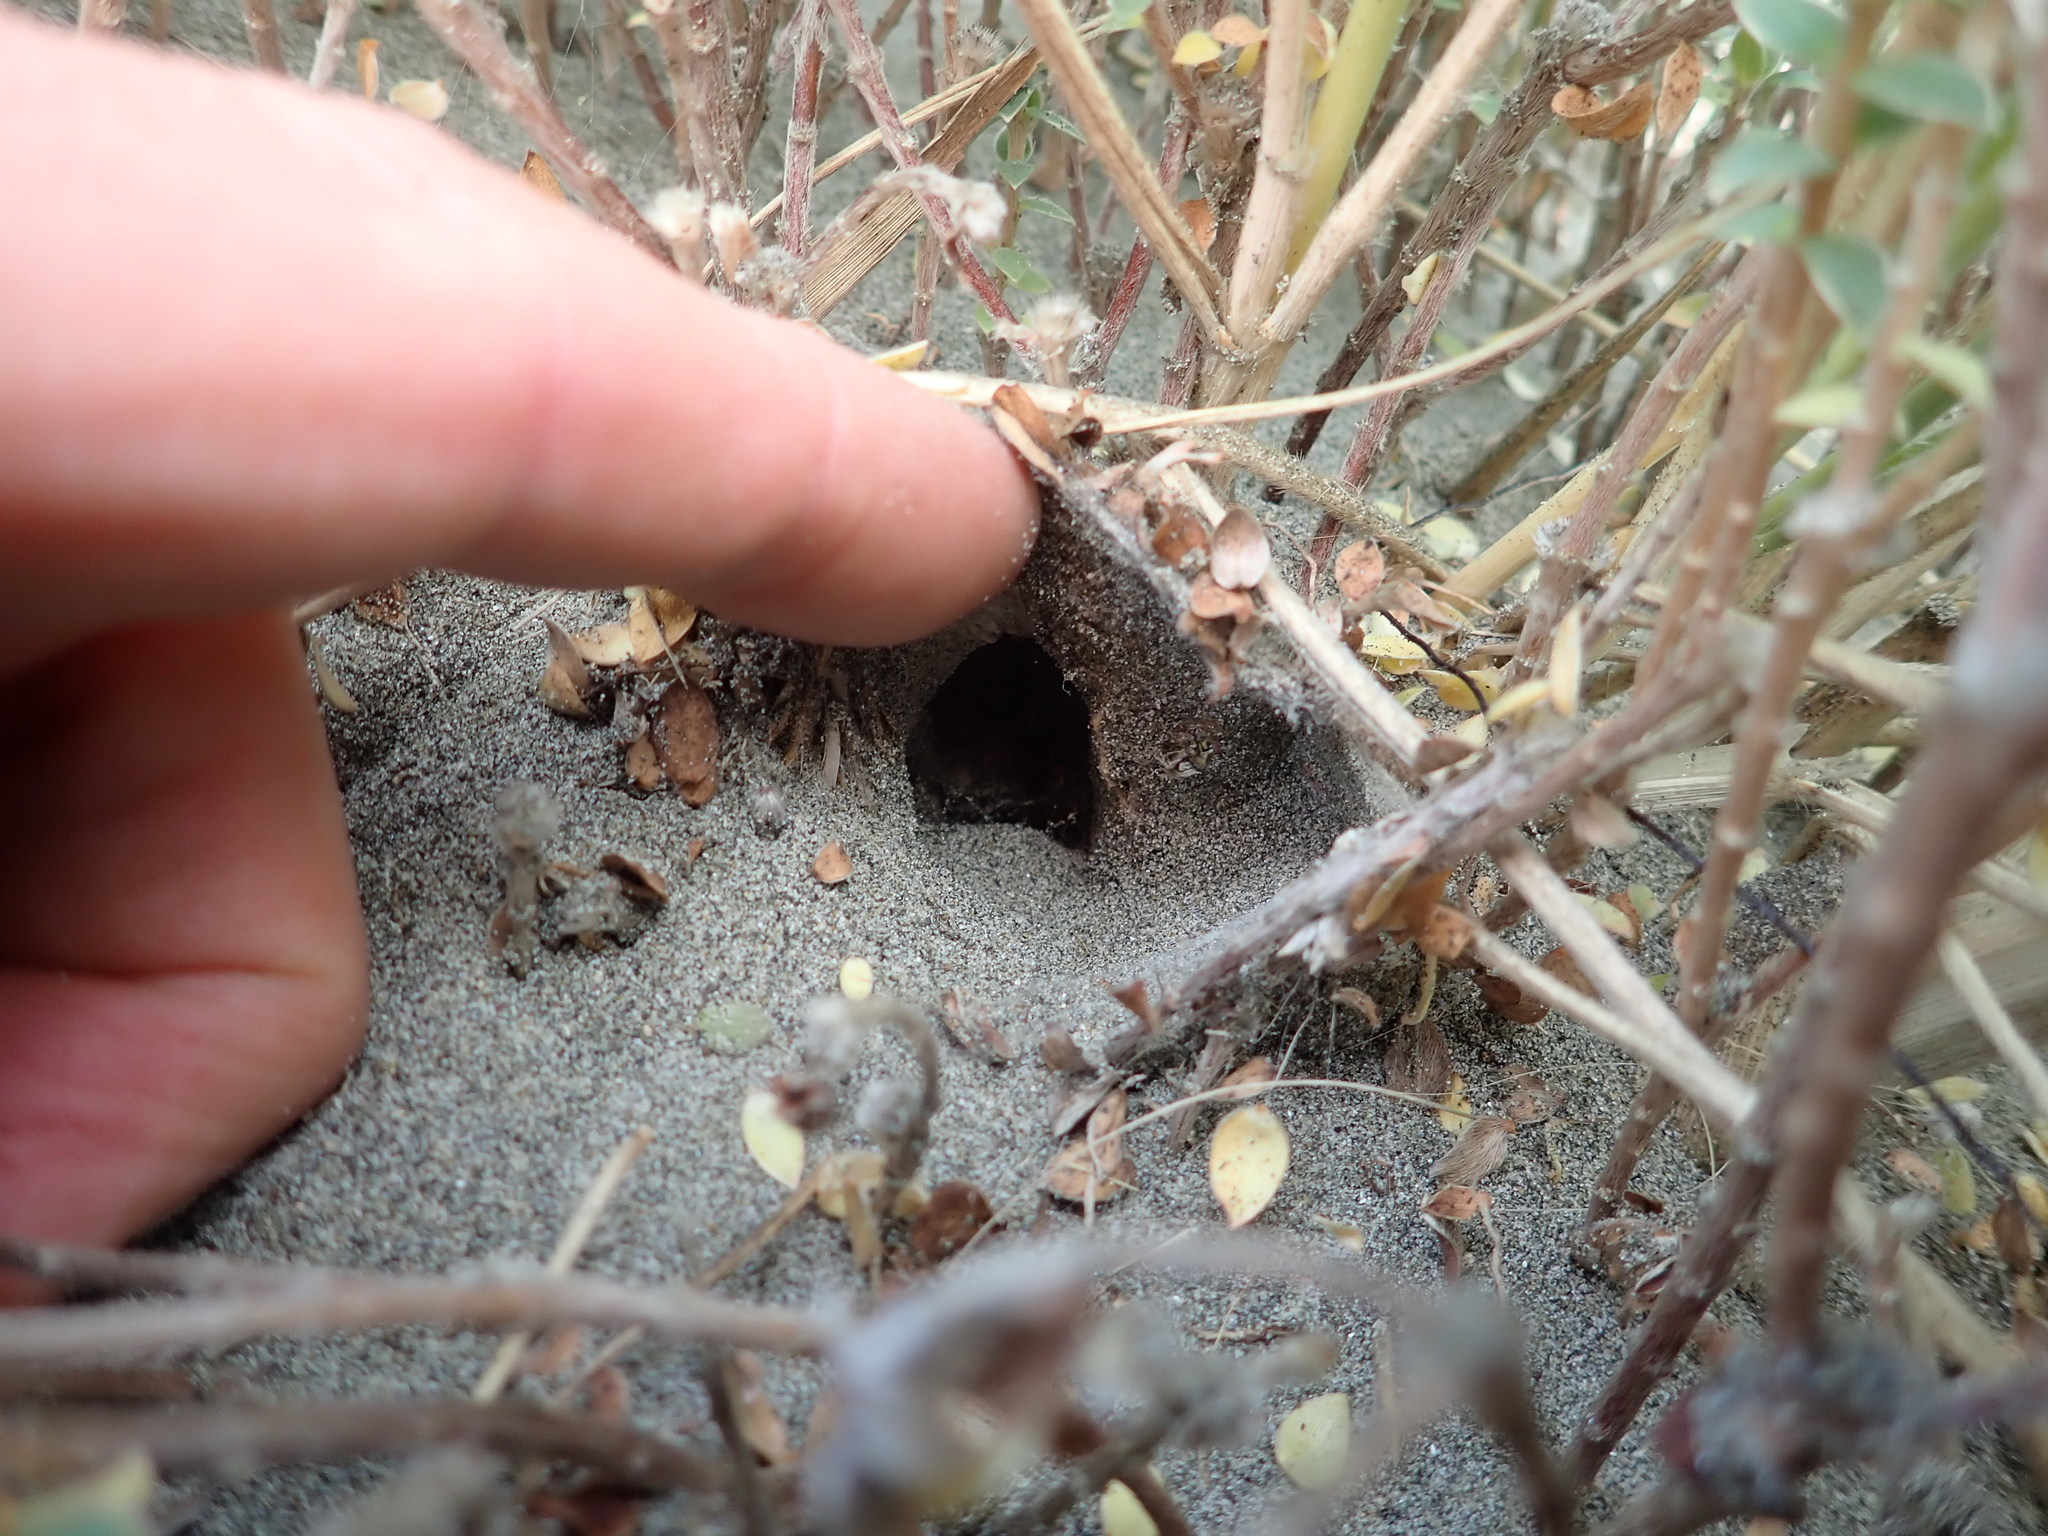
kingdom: Animalia
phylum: Arthropoda
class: Arachnida
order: Araneae
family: Theridiidae
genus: Latrodectus
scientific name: Latrodectus katipo
